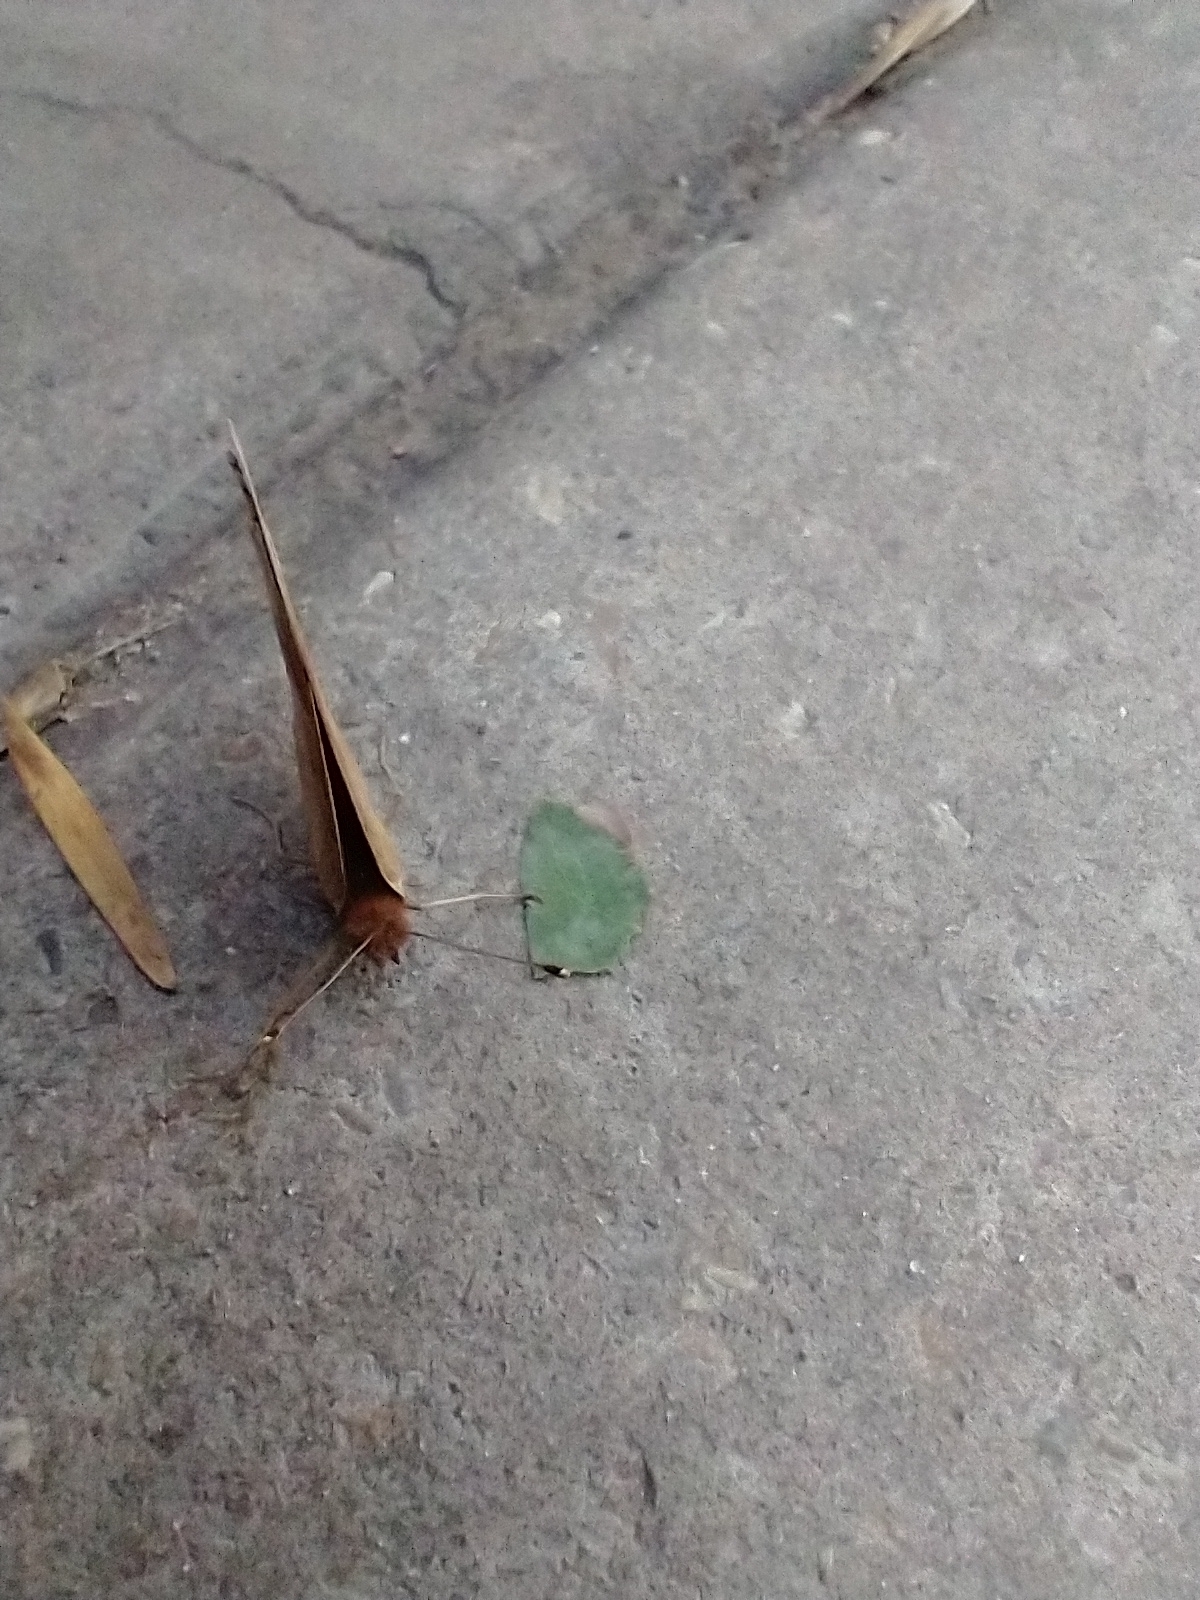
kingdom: Animalia
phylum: Arthropoda
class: Insecta
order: Lepidoptera
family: Nymphalidae
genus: Junonia
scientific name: Junonia lavinia
